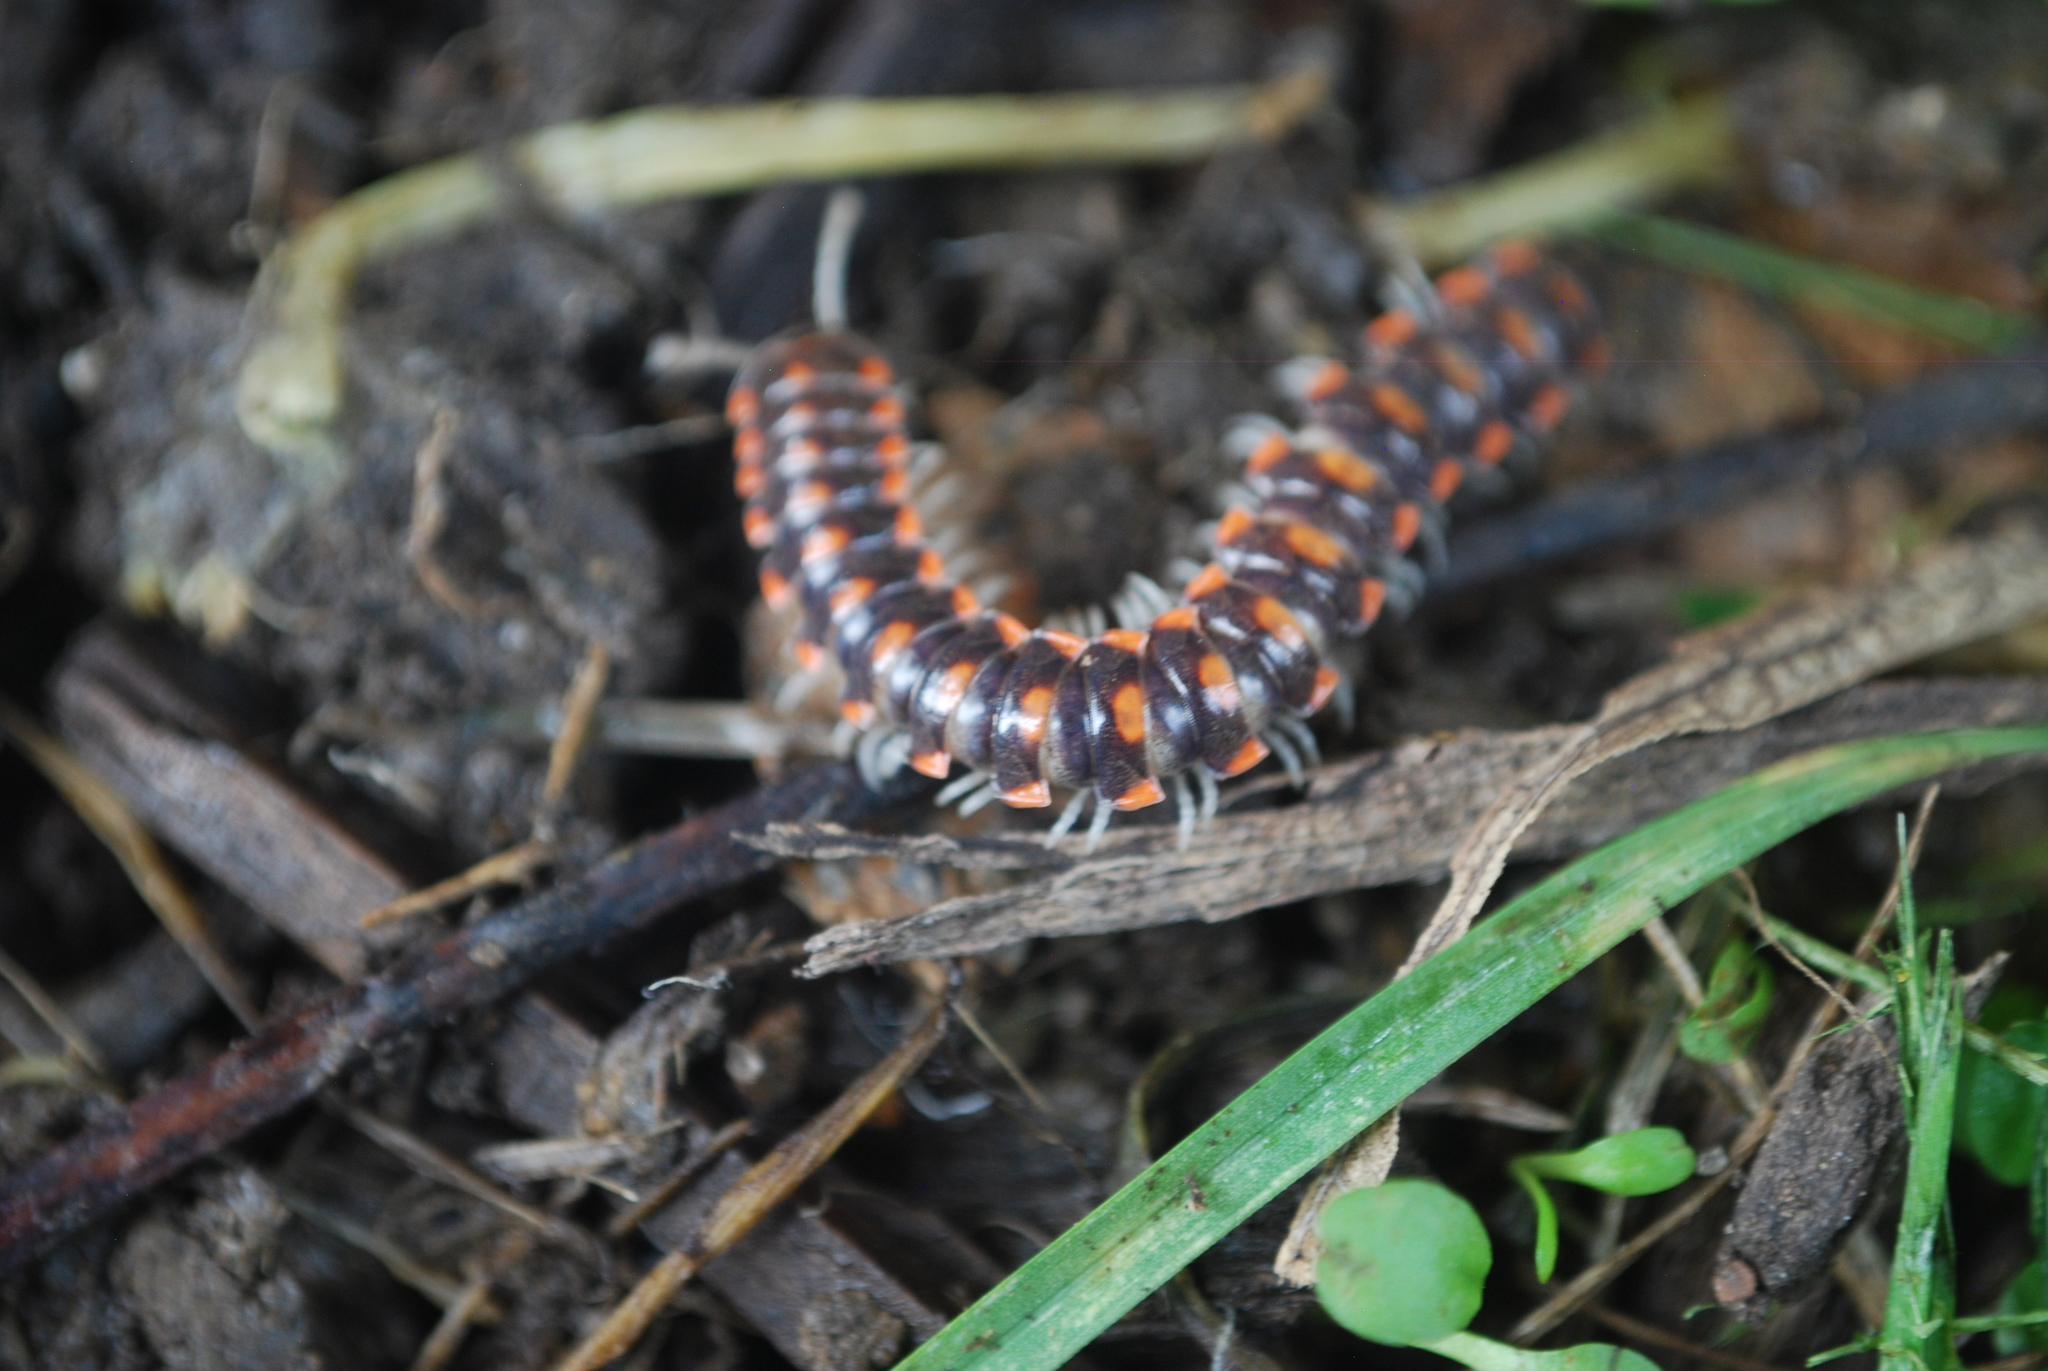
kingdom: Animalia
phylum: Arthropoda
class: Diplopoda
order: Polydesmida
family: Xystodesmidae
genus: Euryurus
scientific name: Euryurus evides
